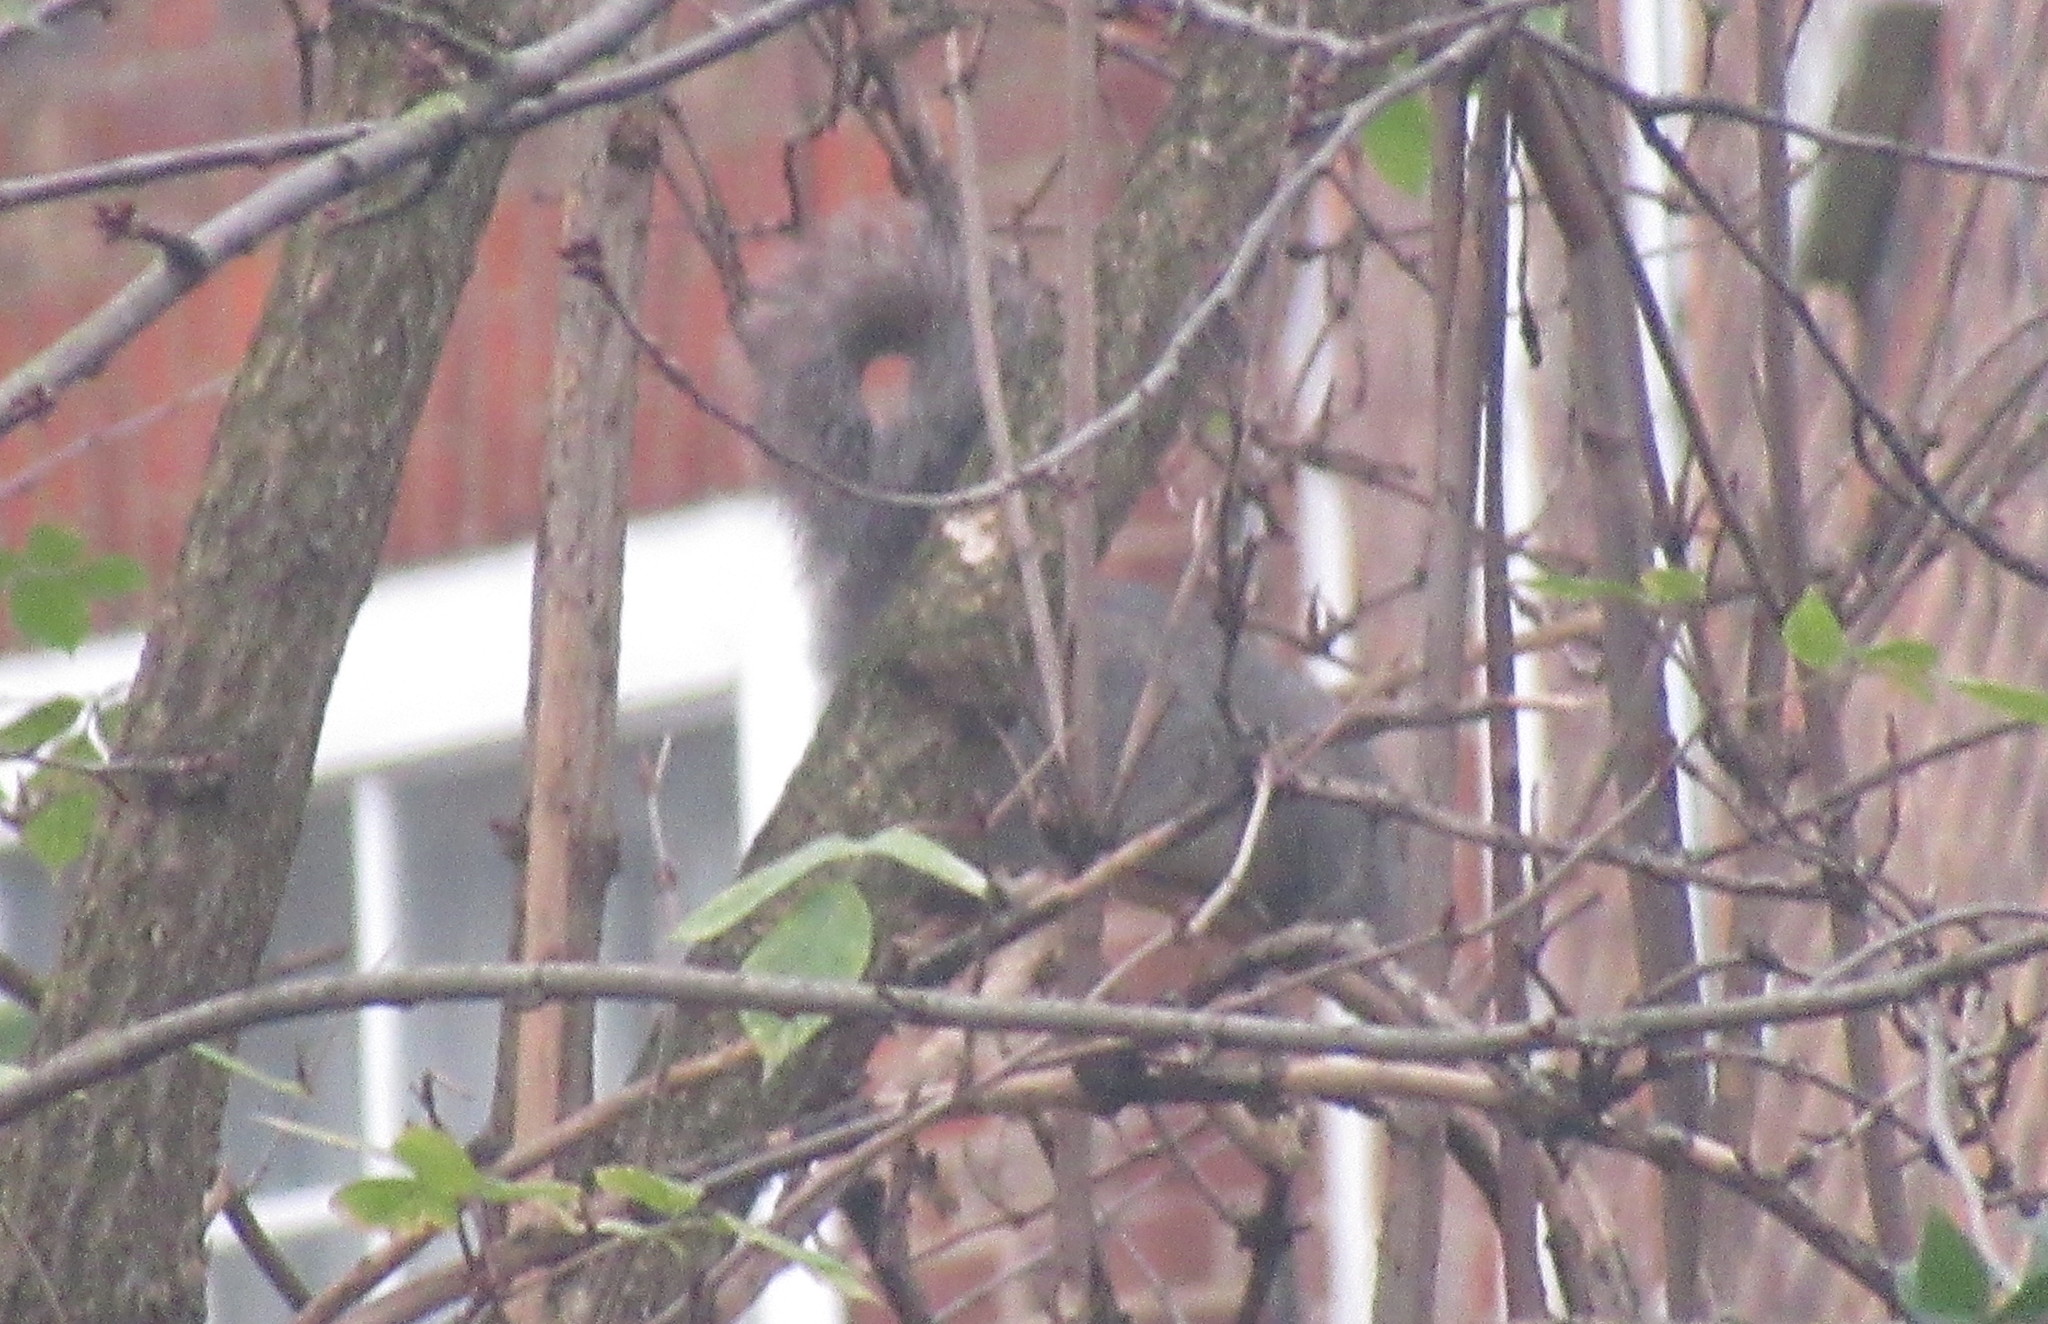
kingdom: Animalia
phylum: Chordata
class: Mammalia
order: Rodentia
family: Sciuridae
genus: Sciurus
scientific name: Sciurus carolinensis
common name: Eastern gray squirrel
